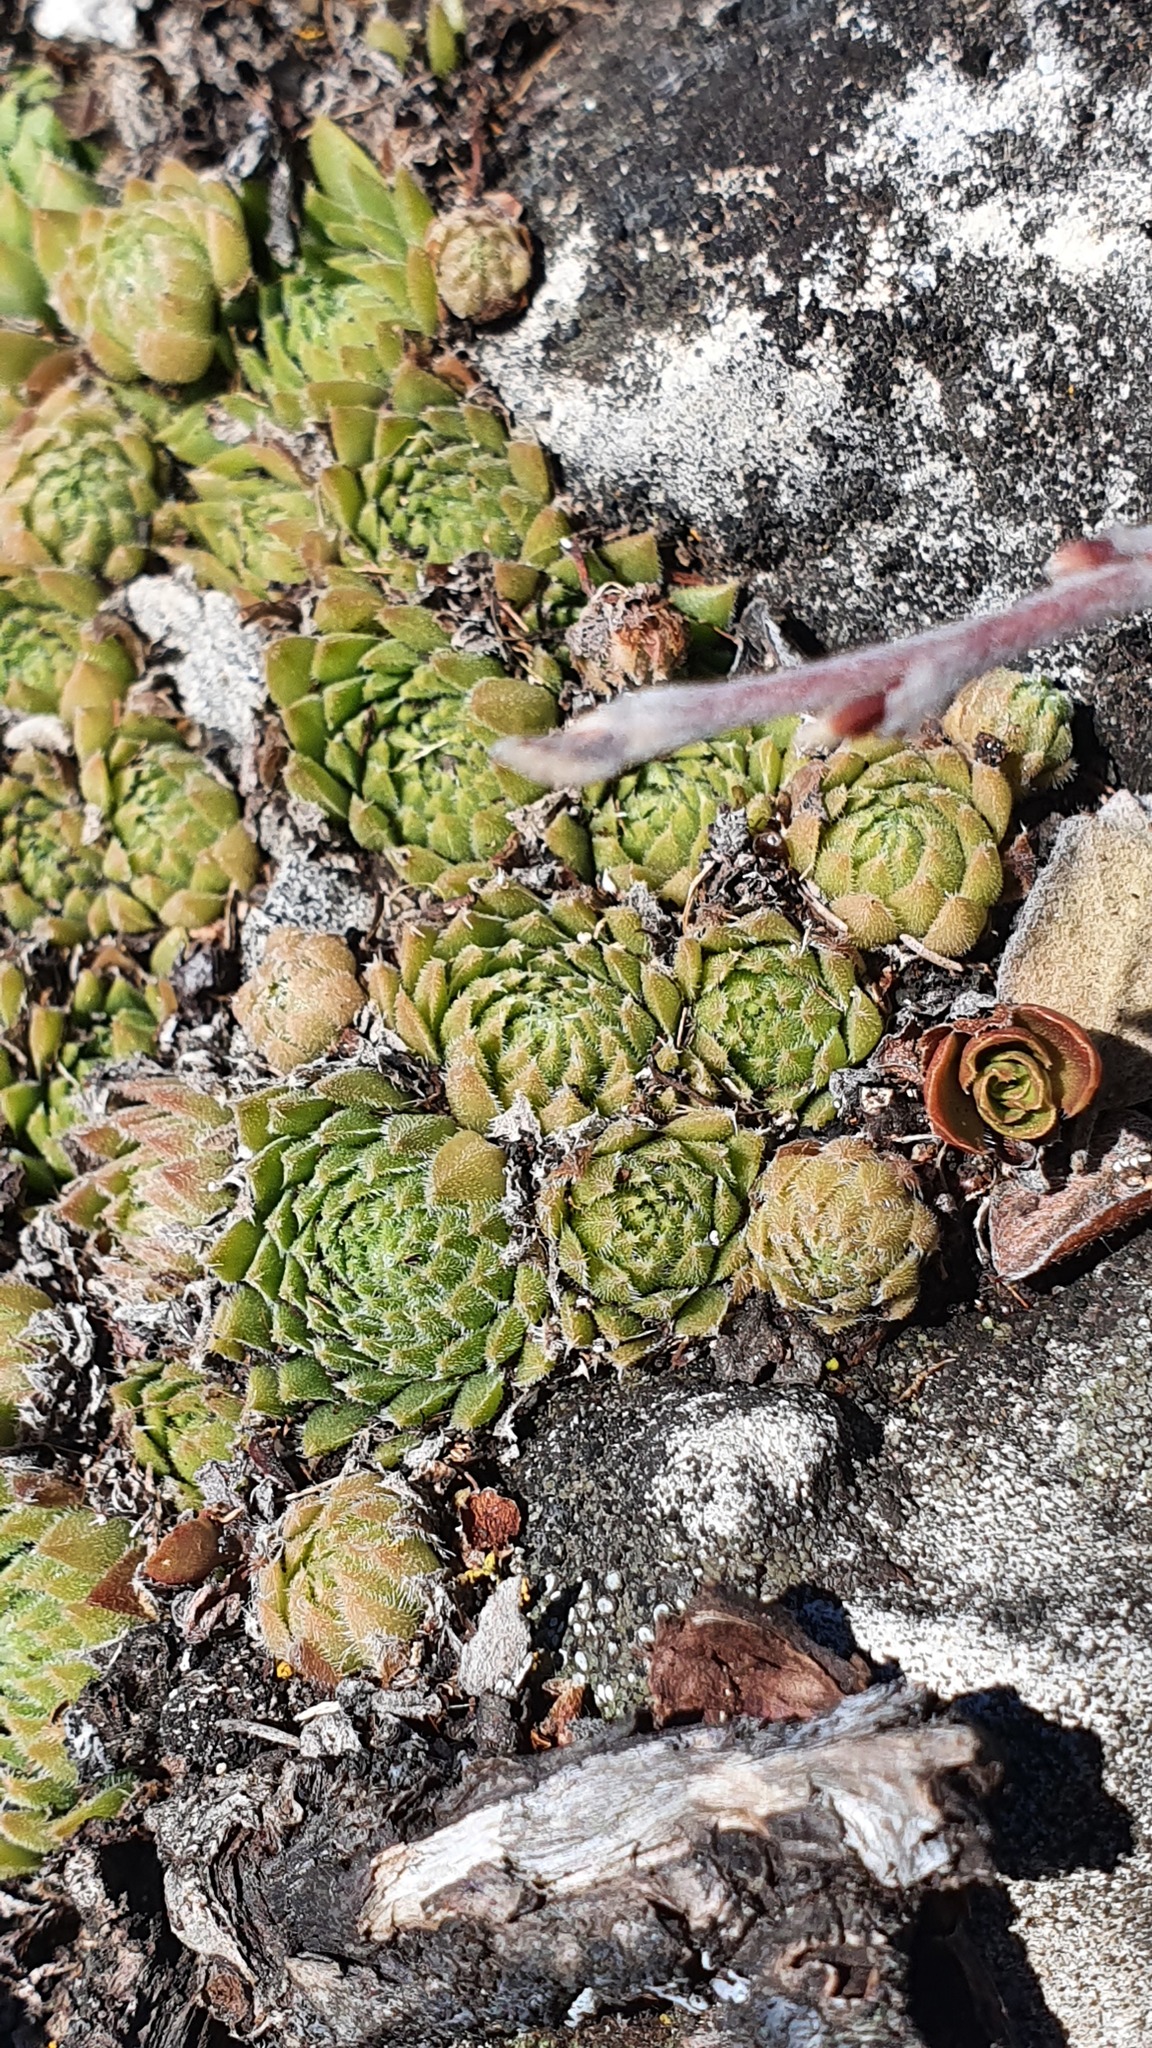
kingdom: Plantae
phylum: Tracheophyta
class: Magnoliopsida
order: Saxifragales
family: Crassulaceae
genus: Sempervivum
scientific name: Sempervivum pumilum
